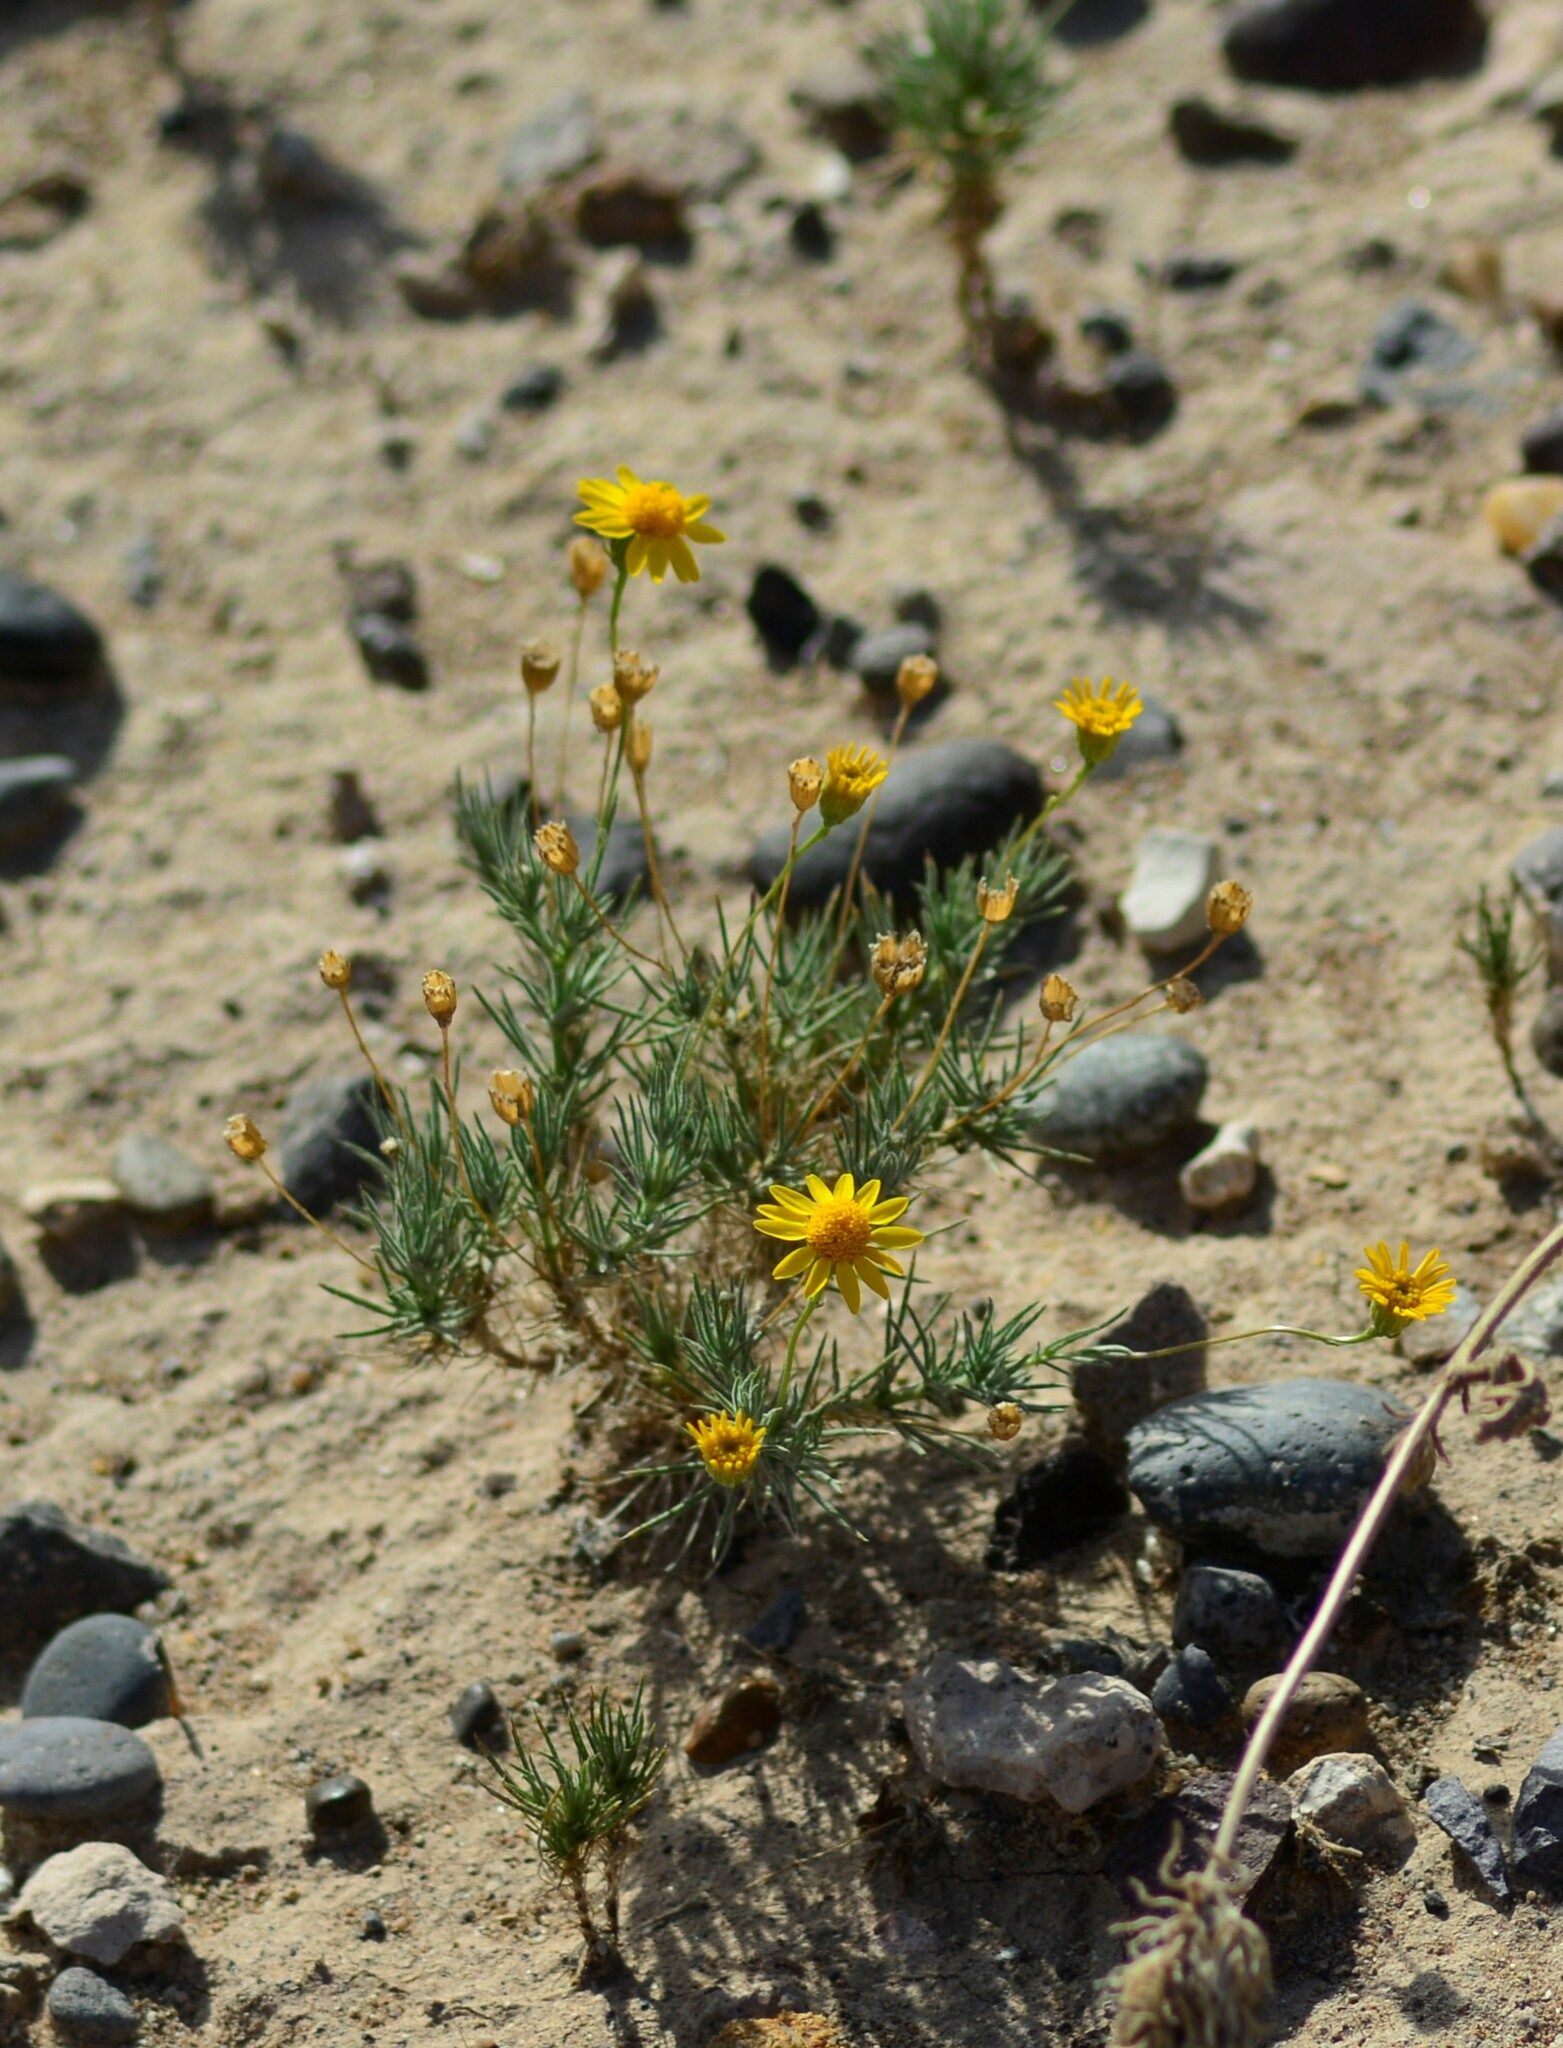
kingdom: Plantae
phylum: Tracheophyta
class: Magnoliopsida
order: Asterales
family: Asteraceae
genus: Thymophylla
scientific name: Thymophylla pentachaeta
